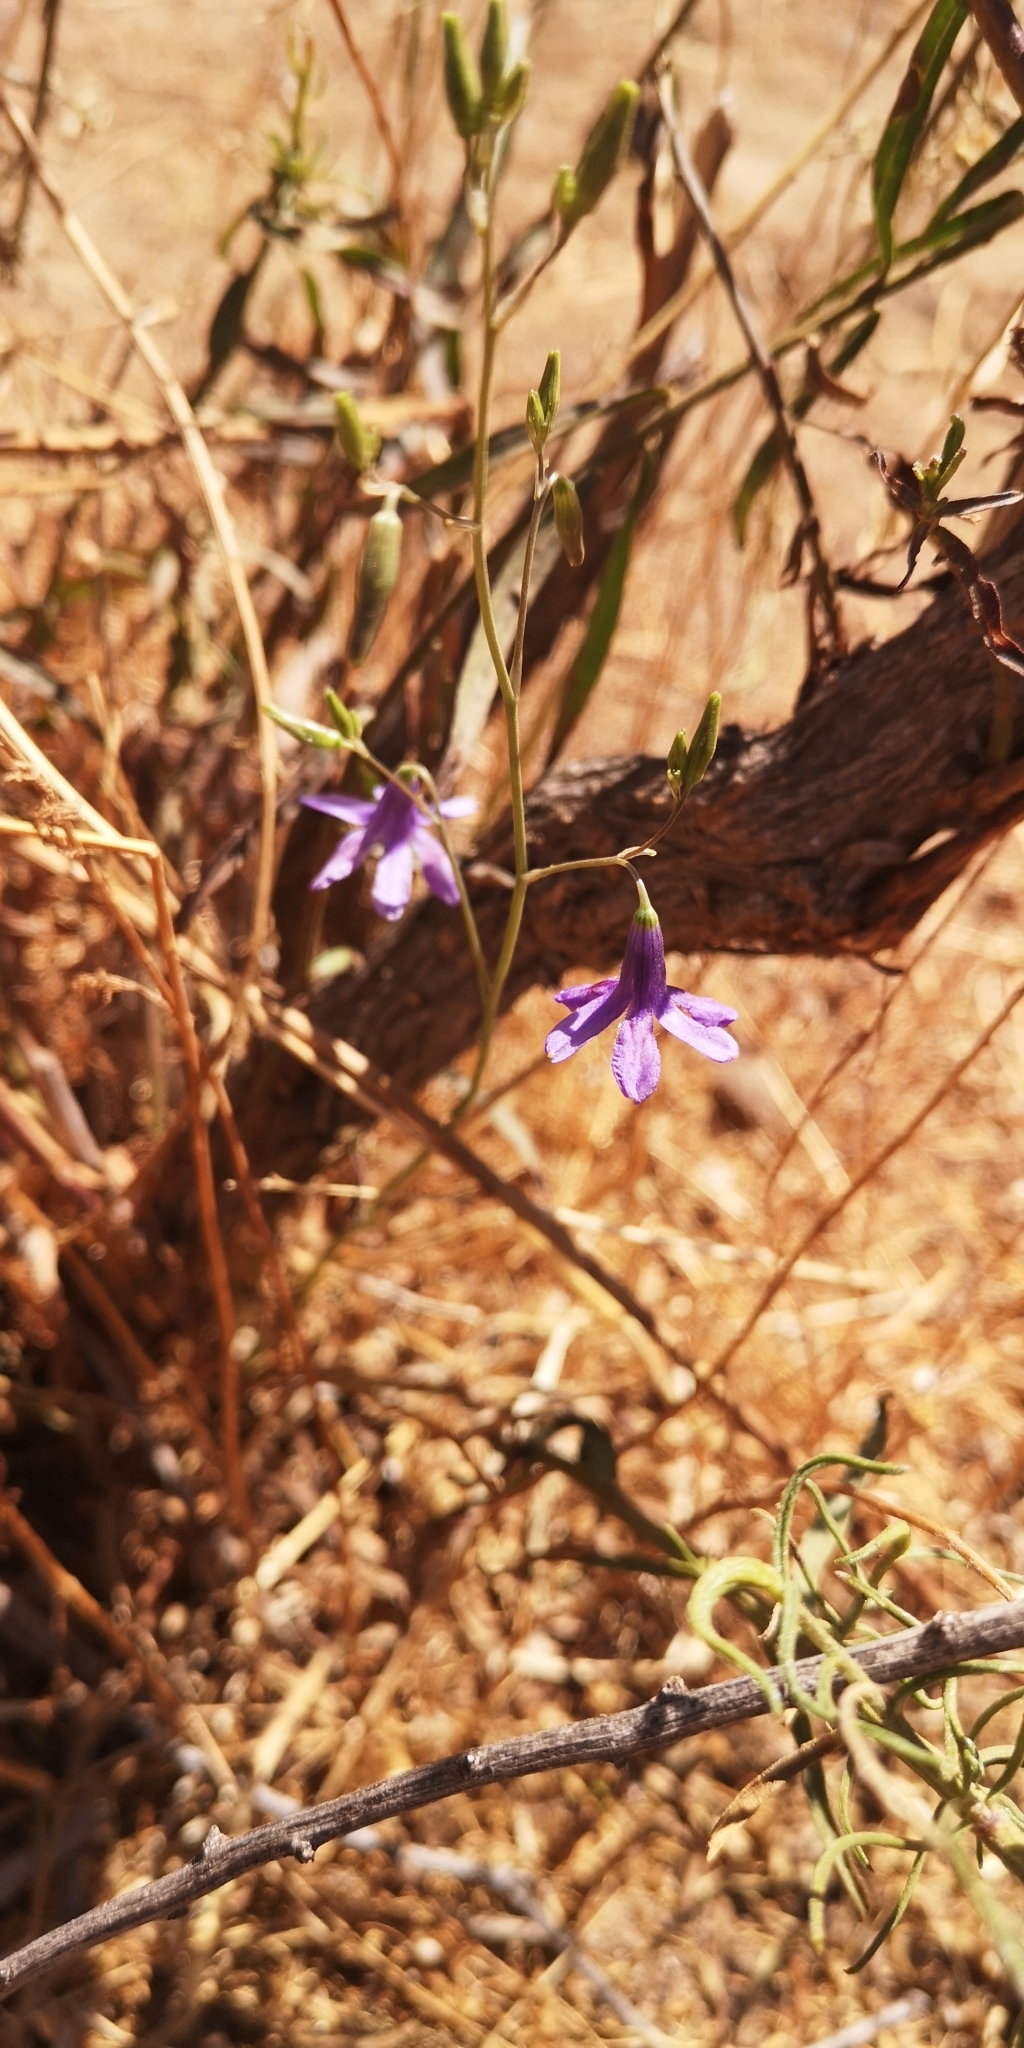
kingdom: Plantae
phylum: Tracheophyta
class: Liliopsida
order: Asparagales
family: Tecophilaeaceae
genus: Conanthera
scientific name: Conanthera trimaculata
